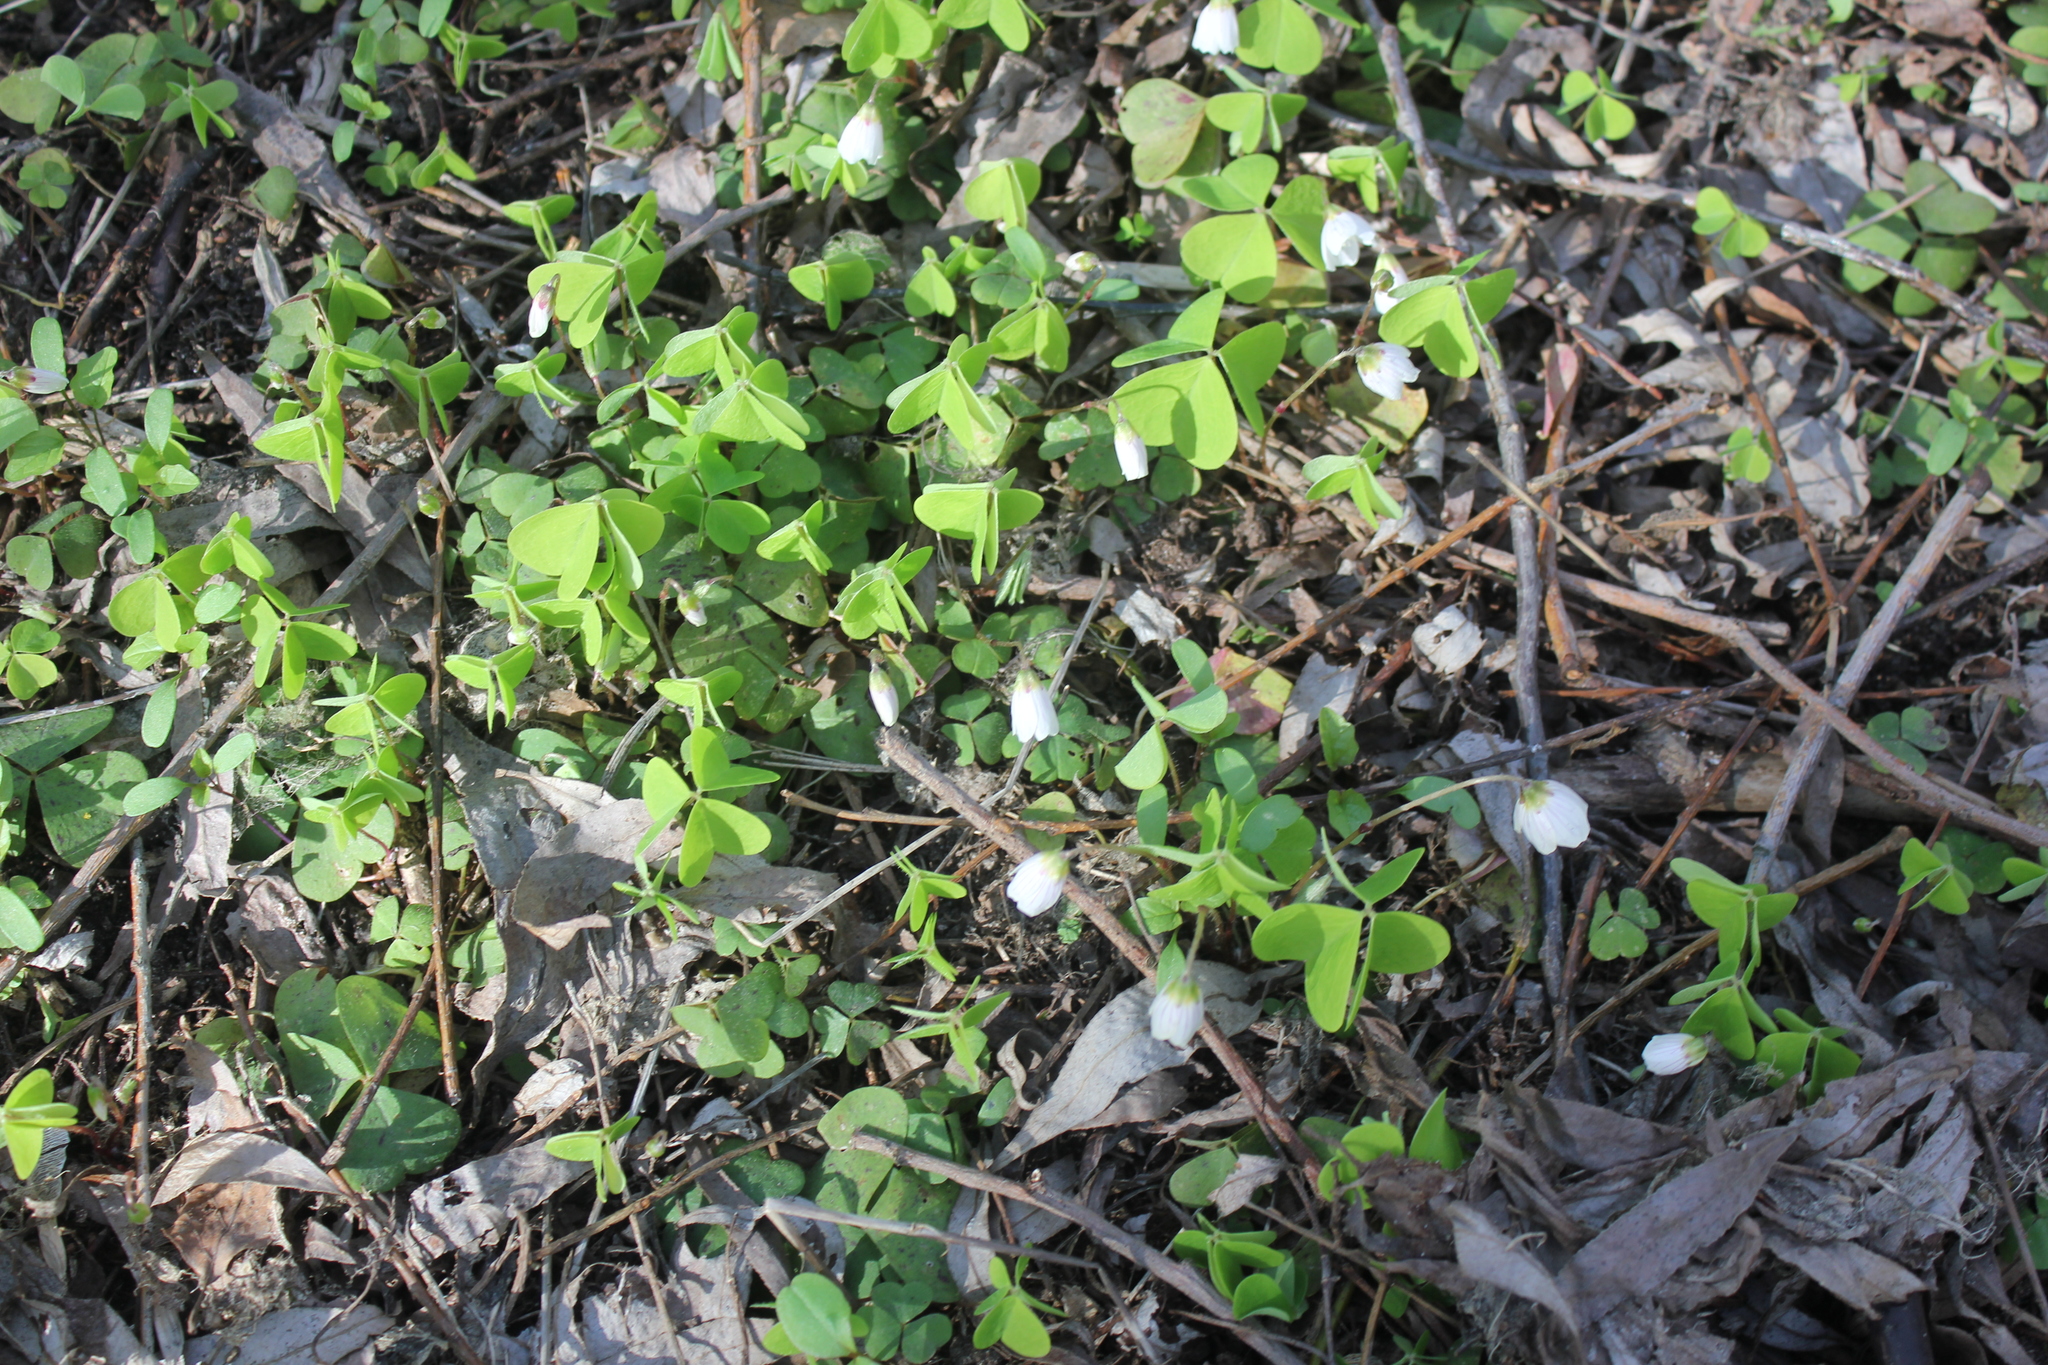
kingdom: Plantae
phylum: Tracheophyta
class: Magnoliopsida
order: Oxalidales
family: Oxalidaceae
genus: Oxalis
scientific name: Oxalis acetosella
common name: Wood-sorrel
